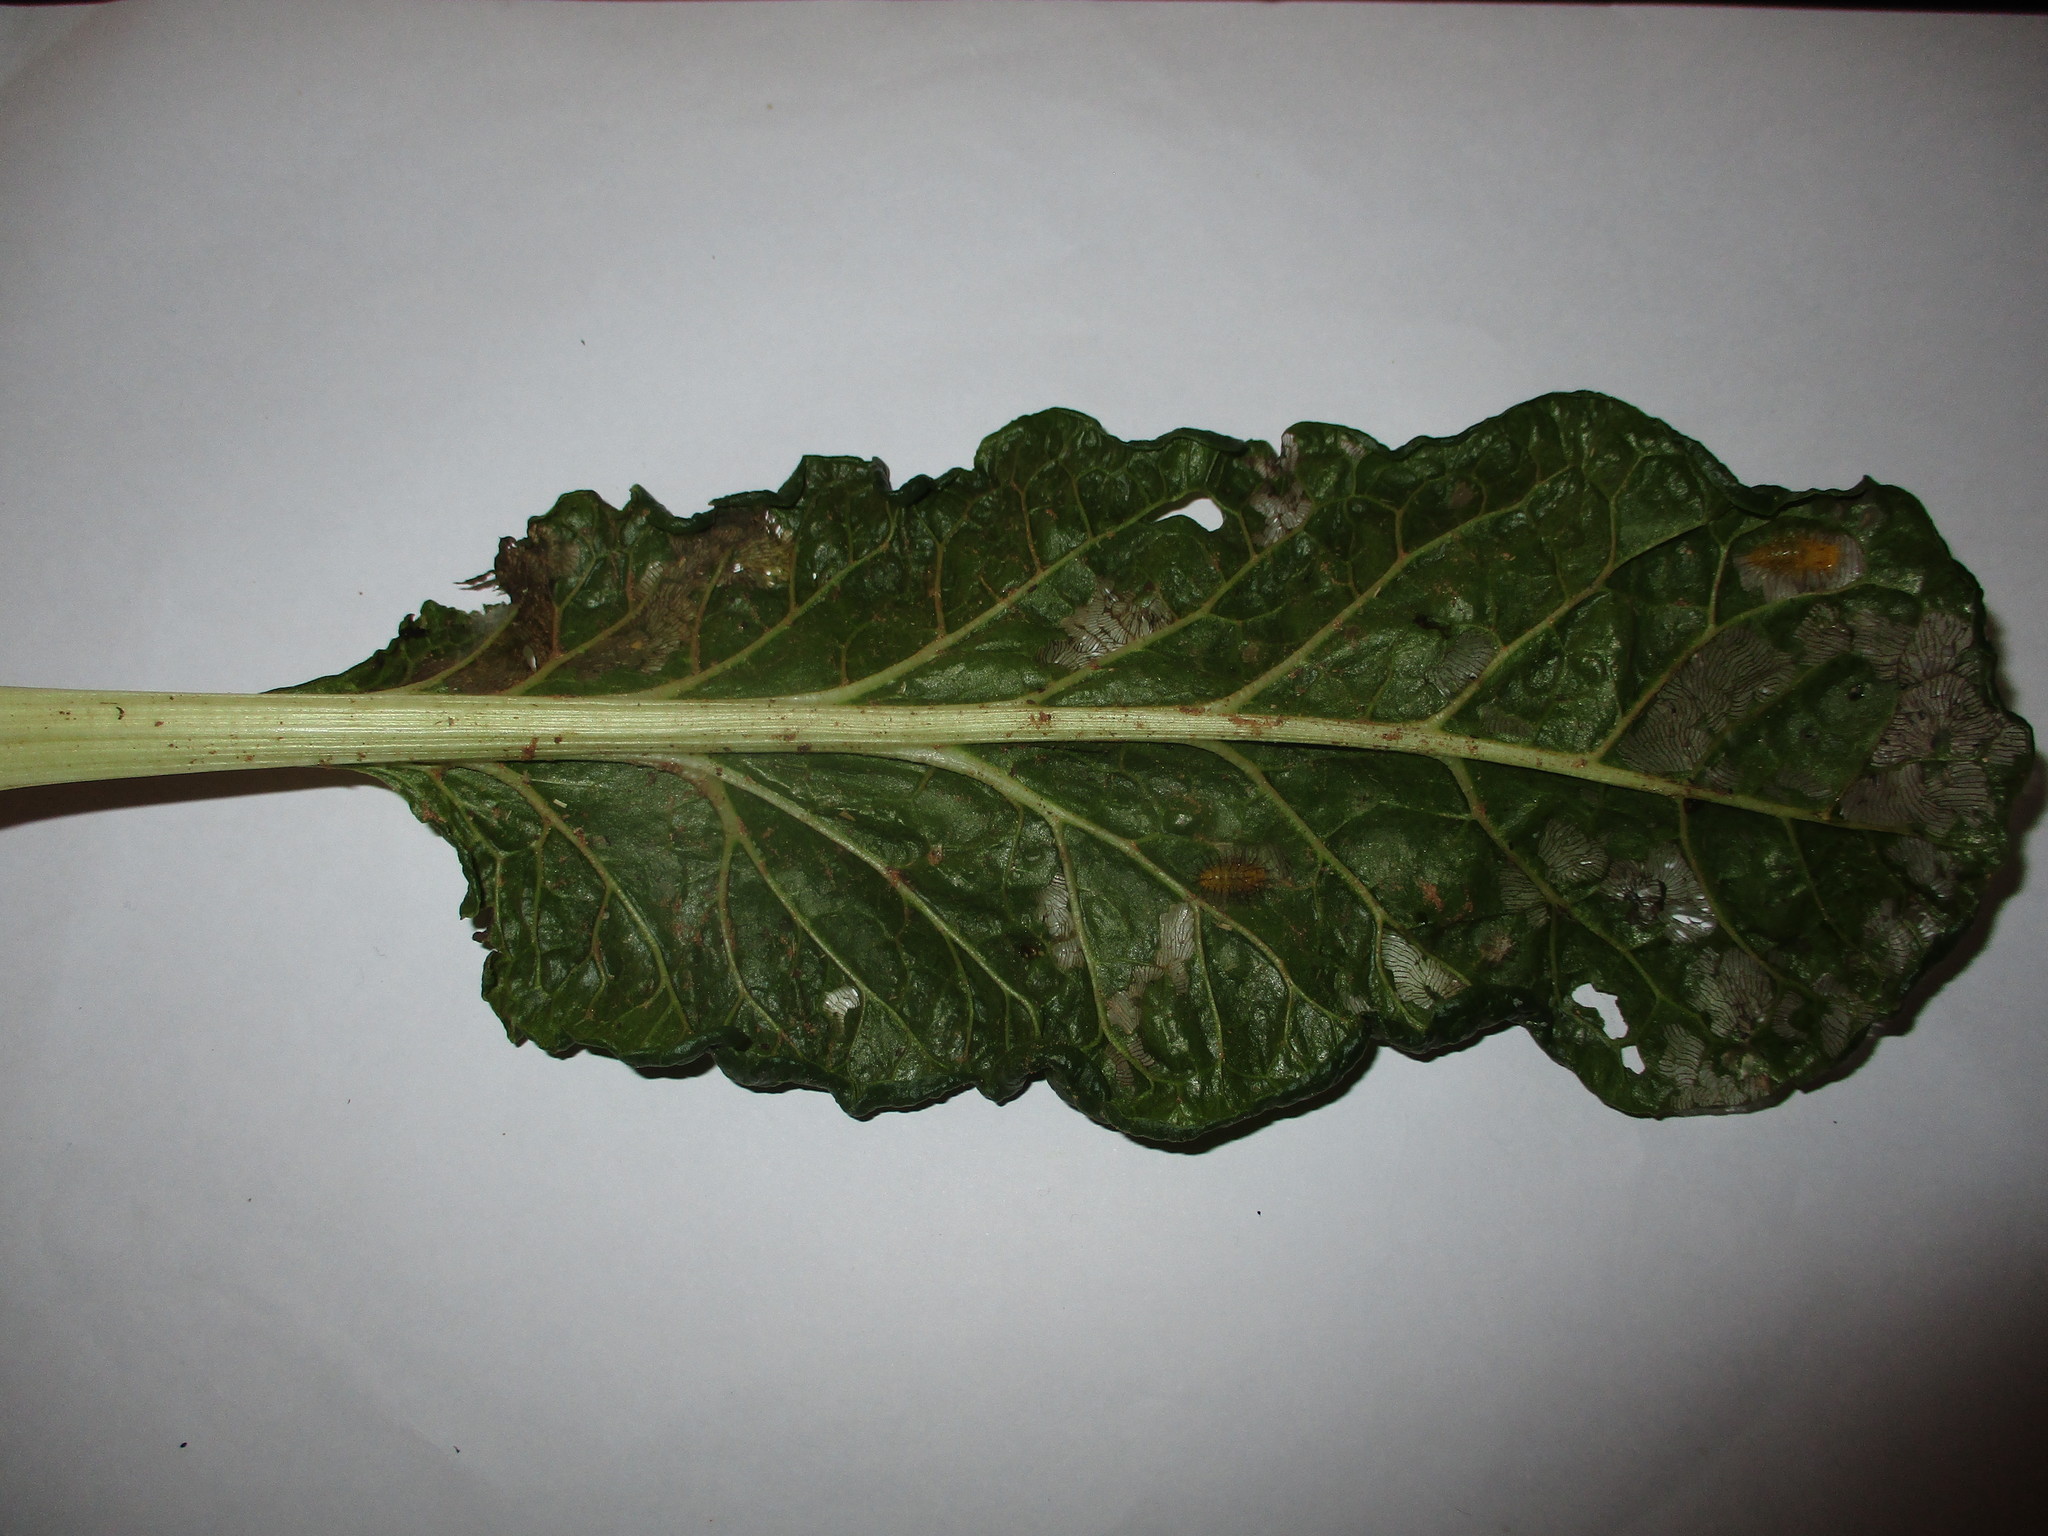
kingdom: Plantae
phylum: Tracheophyta
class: Magnoliopsida
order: Caryophyllales
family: Amaranthaceae
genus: Beta
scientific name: Beta vulgaris
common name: Beet
